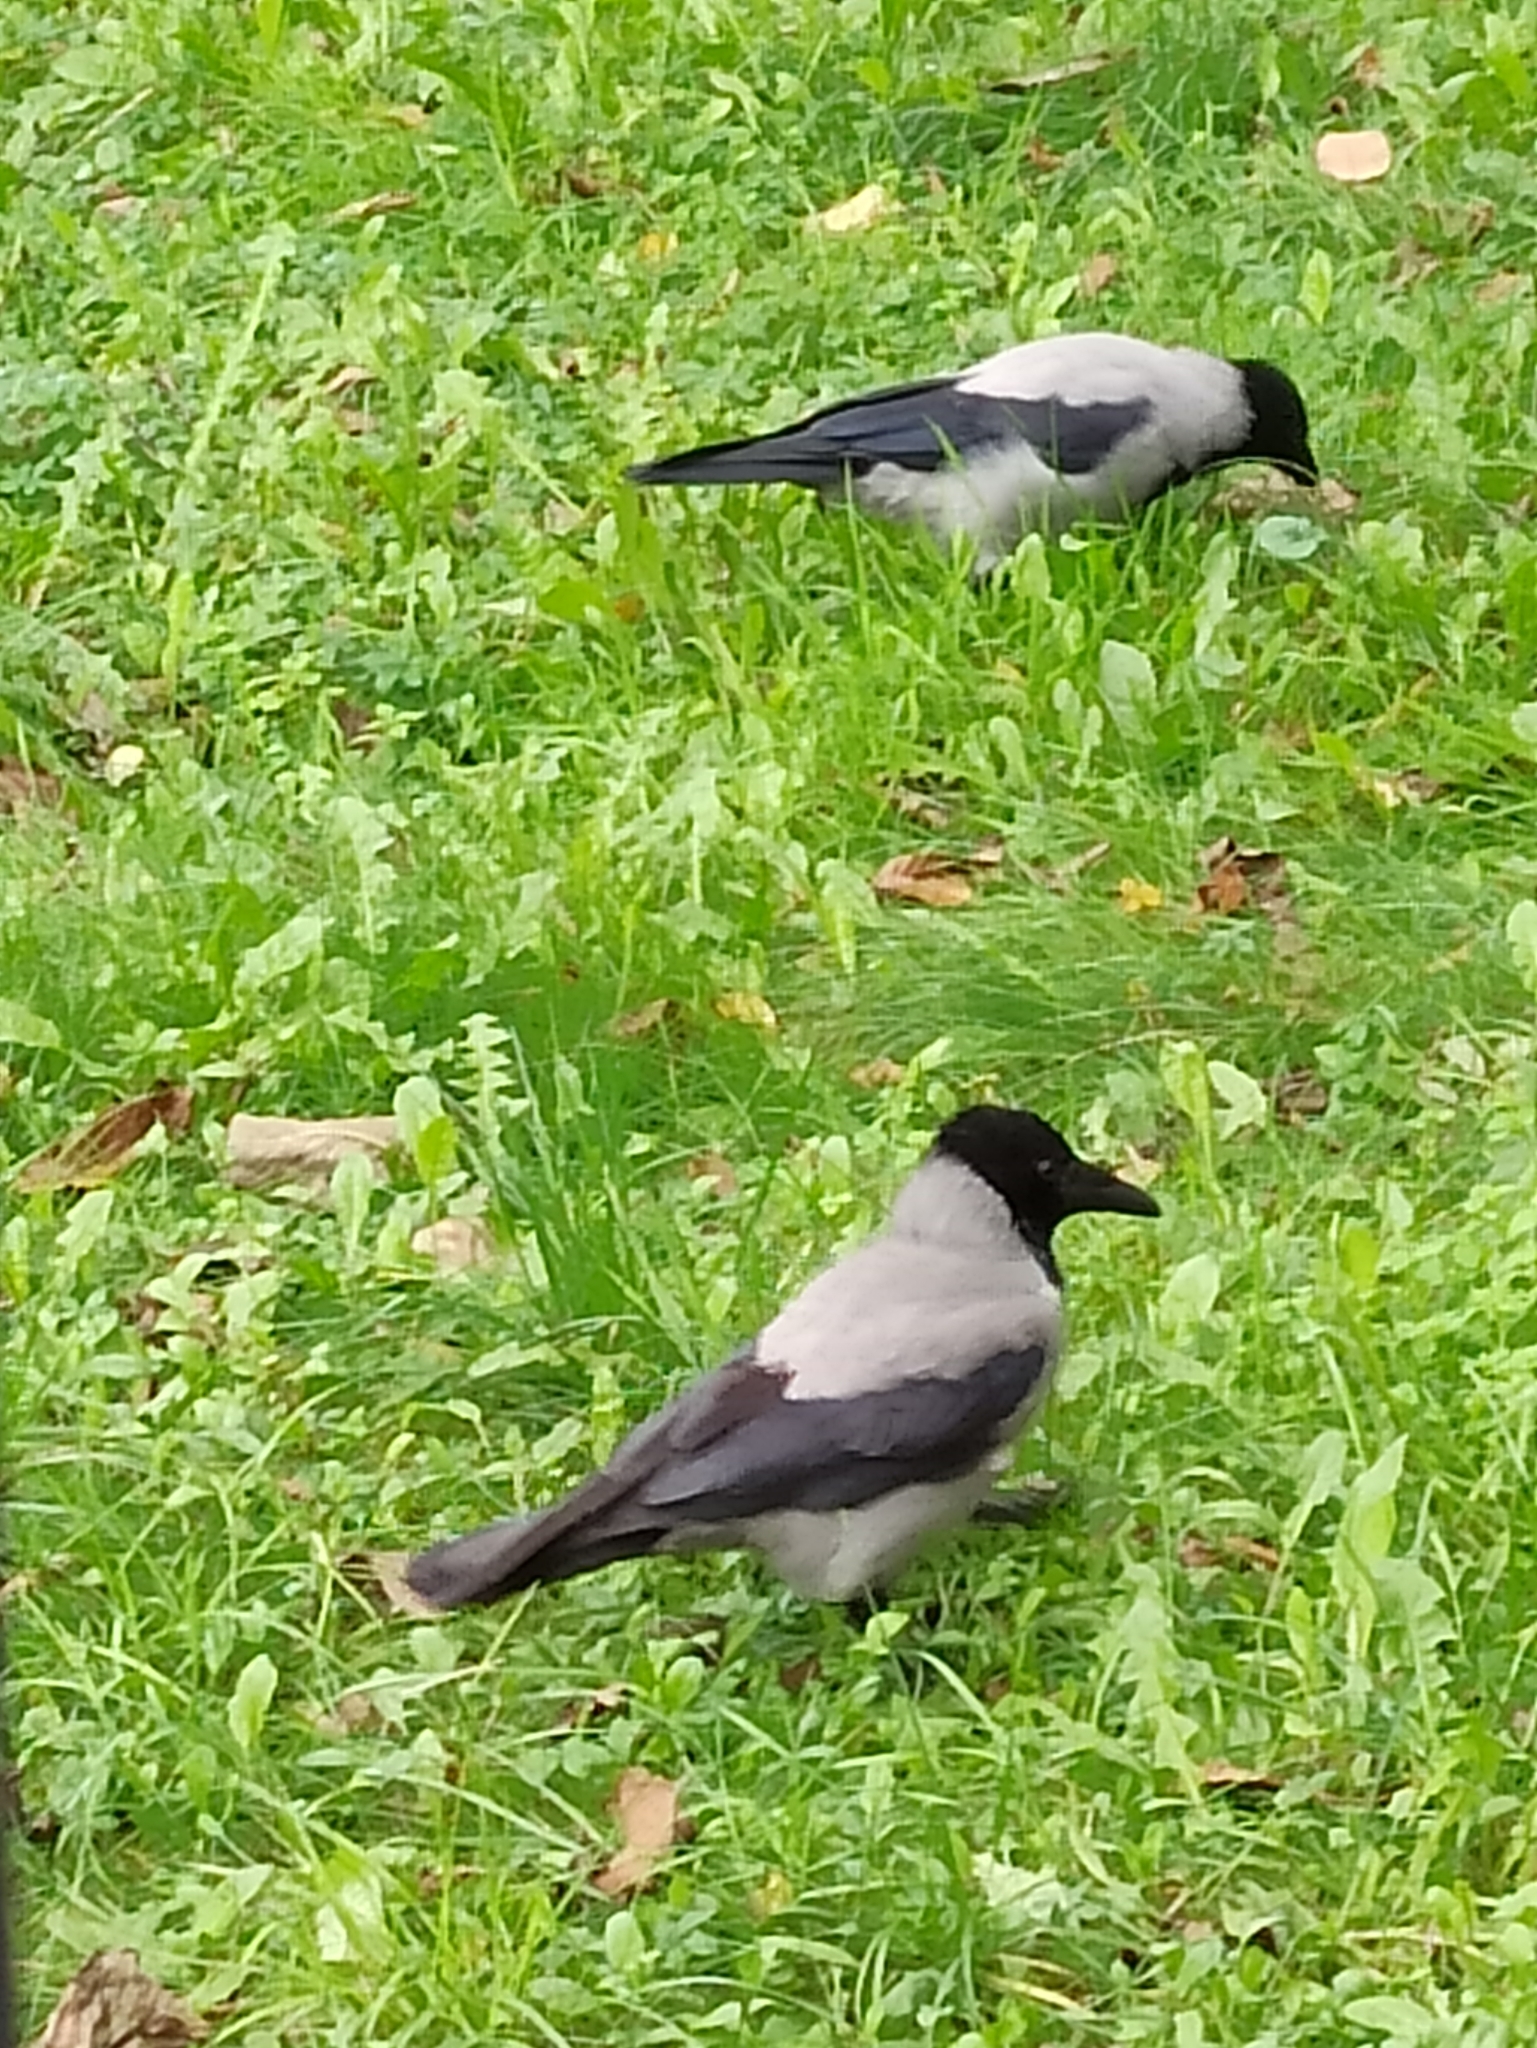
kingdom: Animalia
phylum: Chordata
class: Aves
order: Passeriformes
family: Corvidae
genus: Corvus
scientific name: Corvus cornix
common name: Hooded crow
